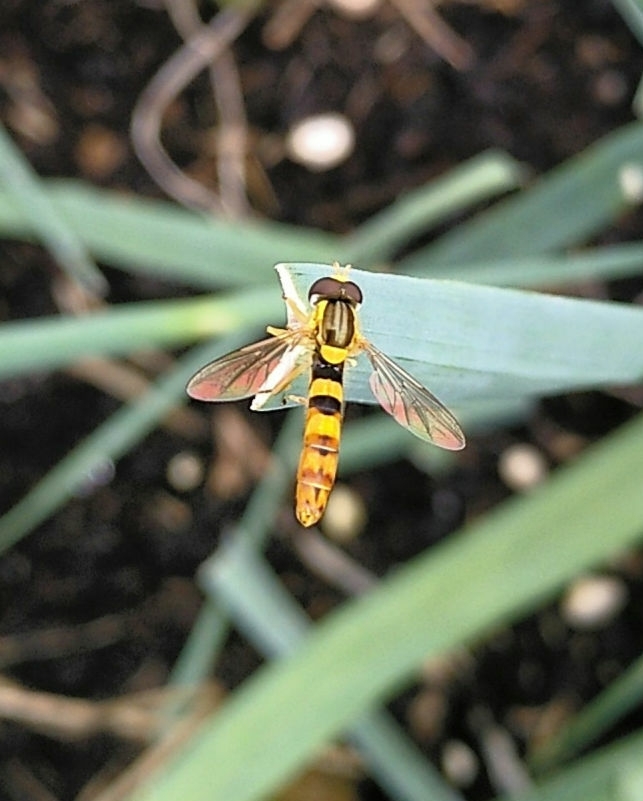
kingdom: Animalia
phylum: Arthropoda
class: Insecta
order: Diptera
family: Syrphidae
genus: Sphaerophoria
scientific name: Sphaerophoria scripta
